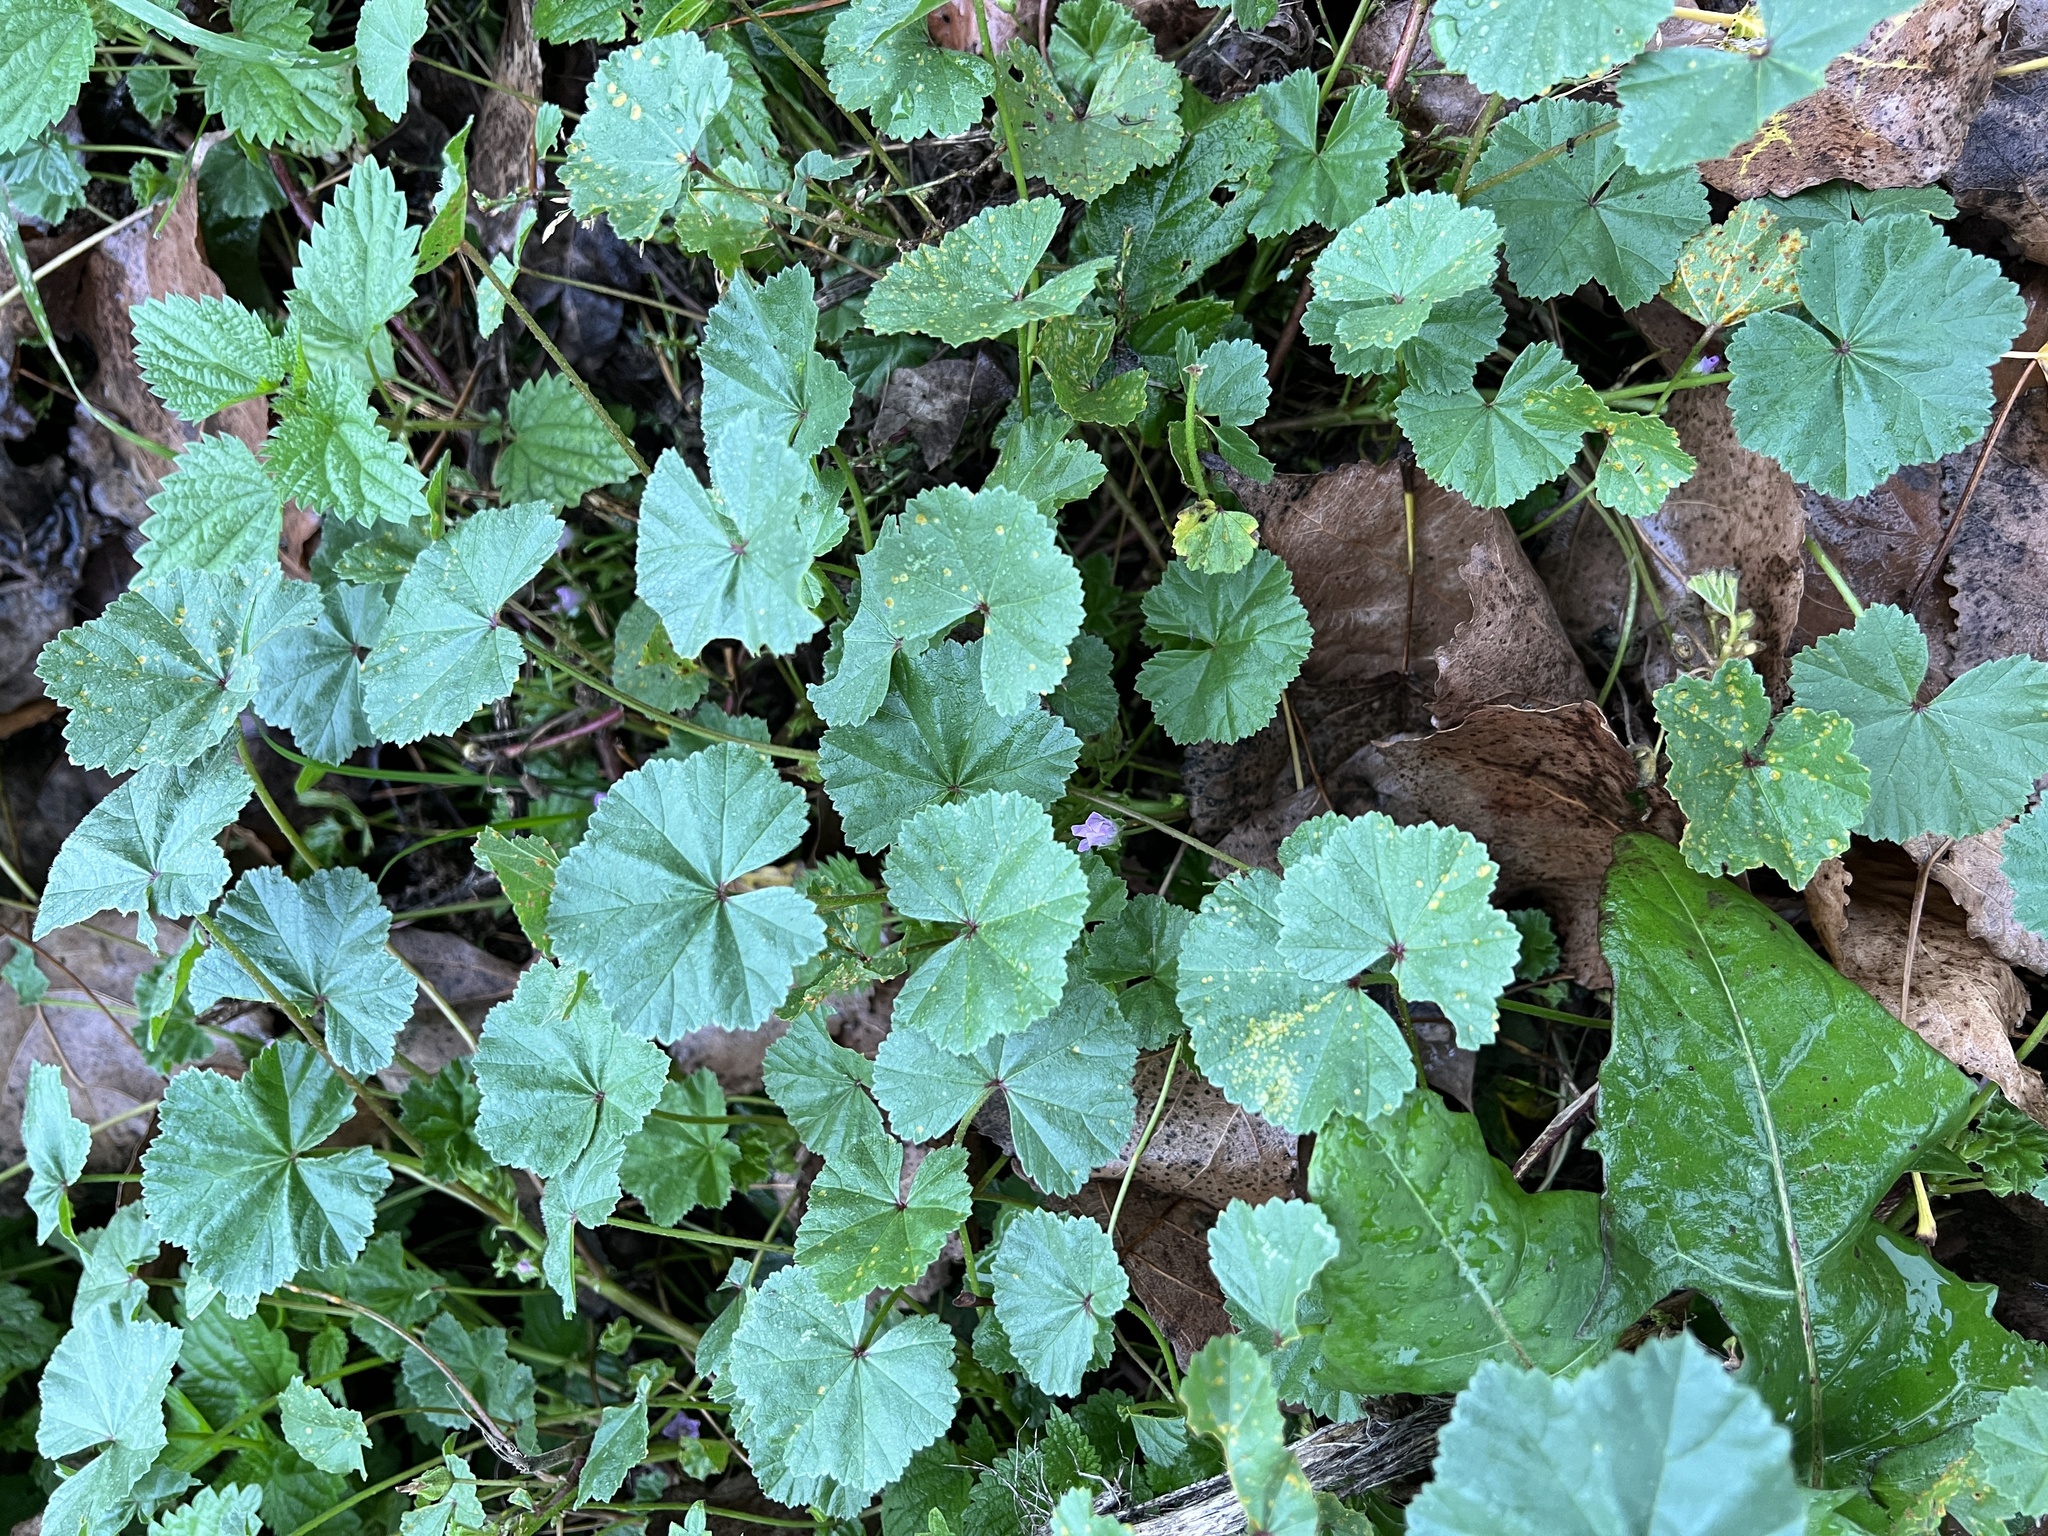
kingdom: Plantae
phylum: Tracheophyta
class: Magnoliopsida
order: Malvales
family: Malvaceae
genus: Malva
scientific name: Malva neglecta
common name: Common mallow
